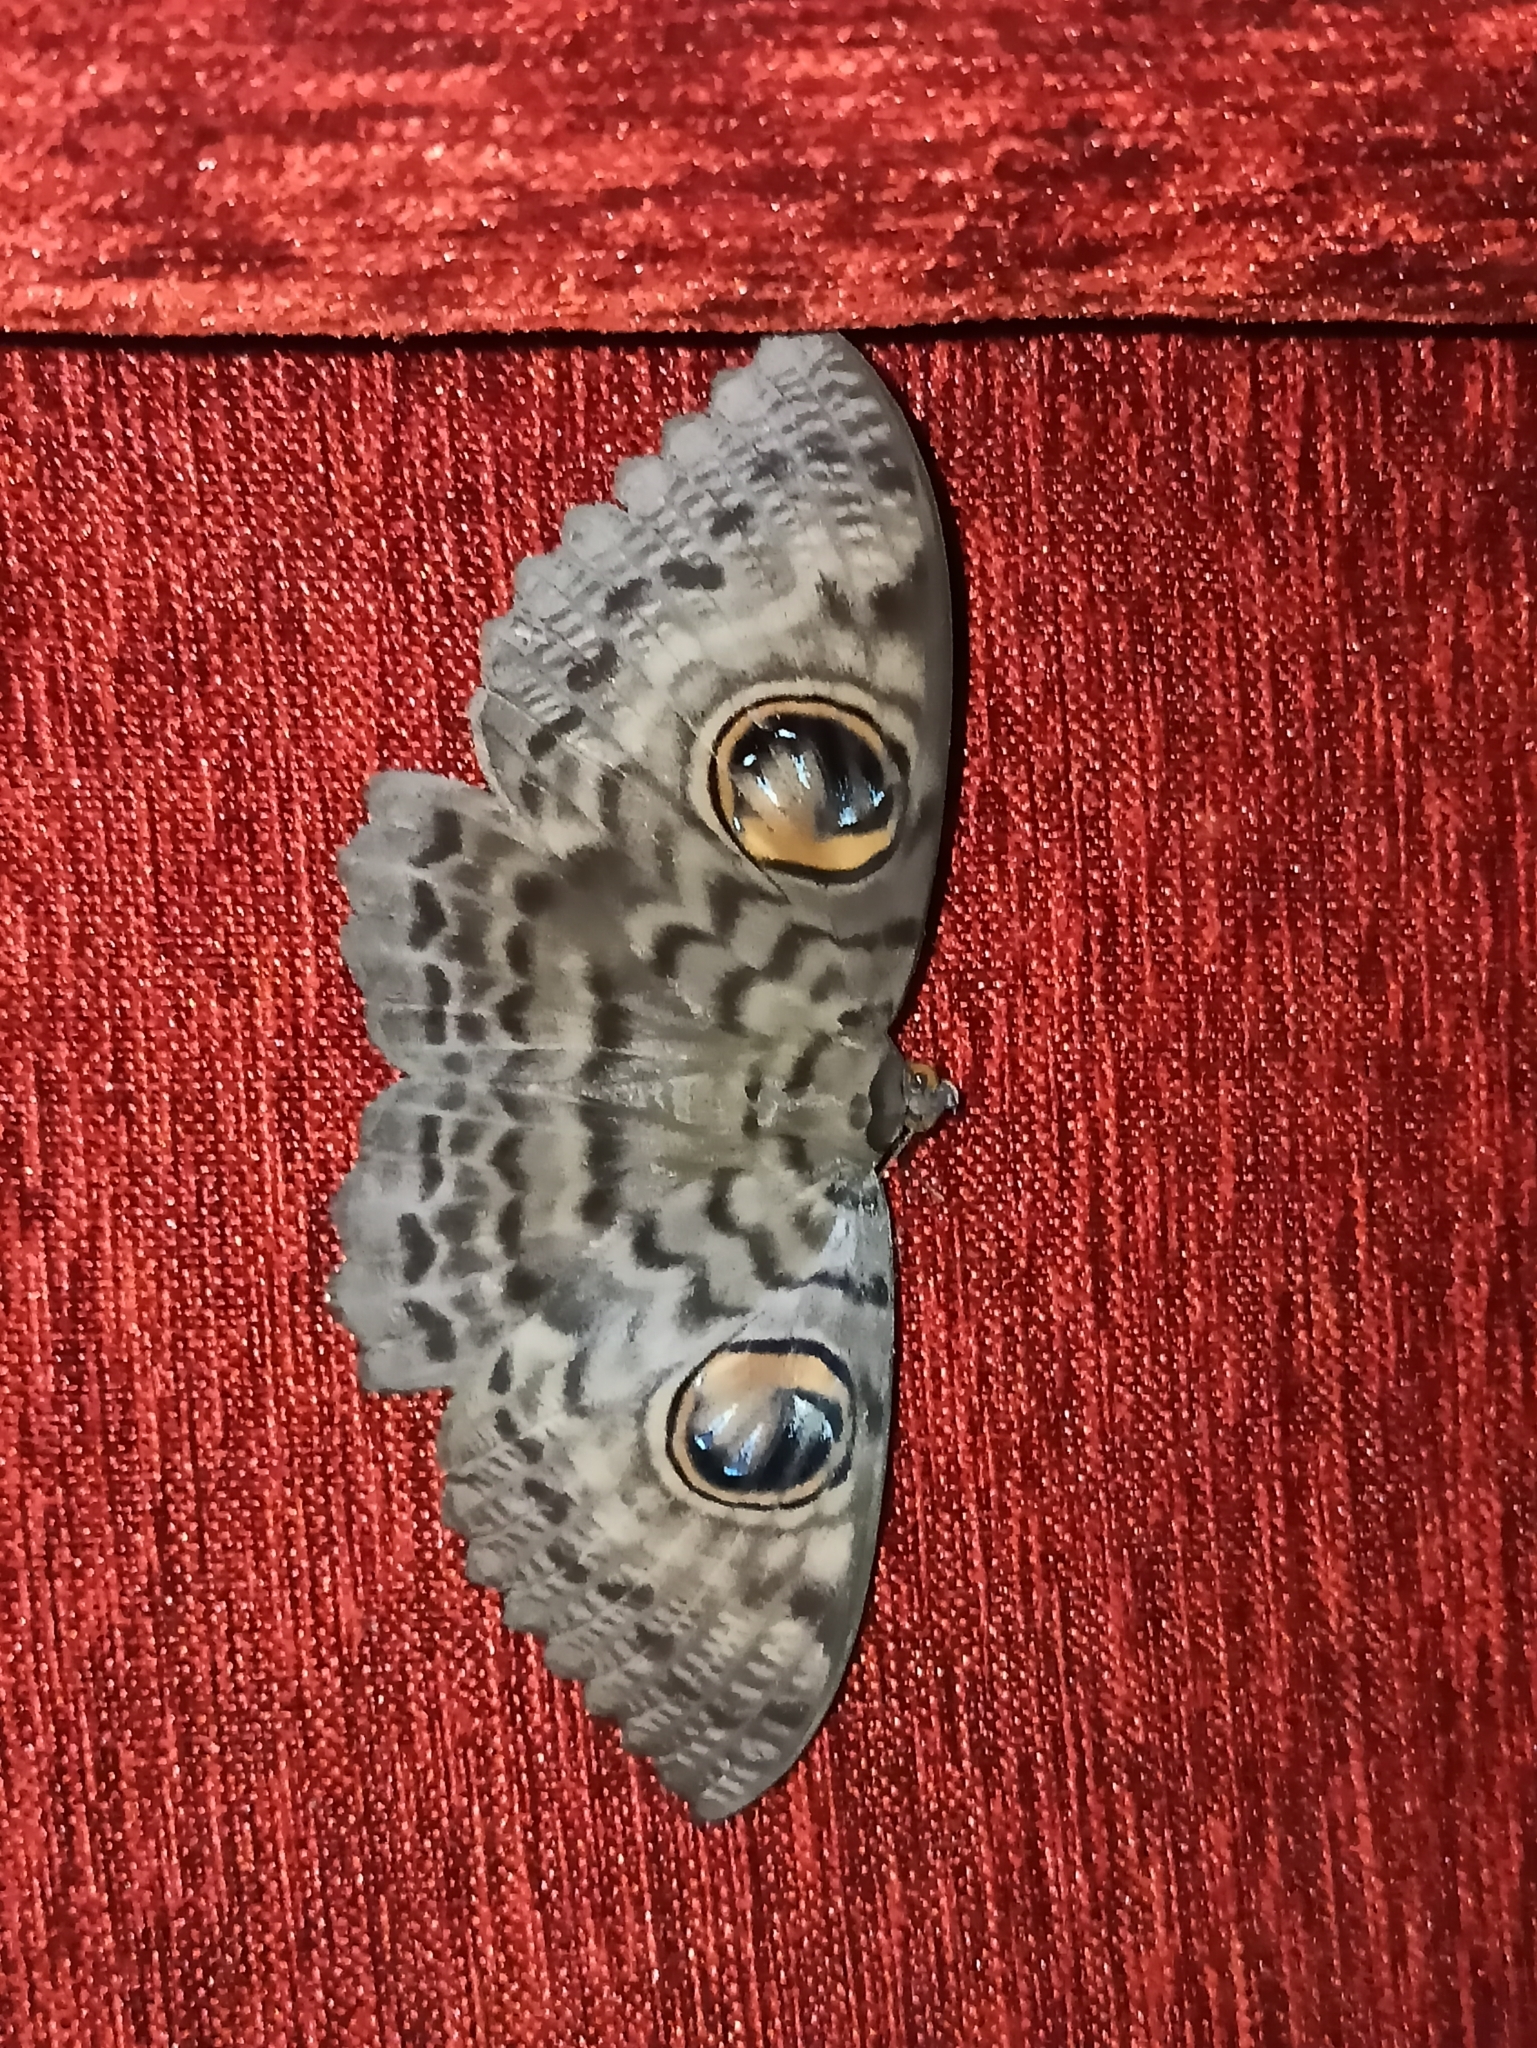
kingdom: Animalia
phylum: Arthropoda
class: Insecta
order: Lepidoptera
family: Erebidae
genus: Erebus
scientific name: Erebus macrops
